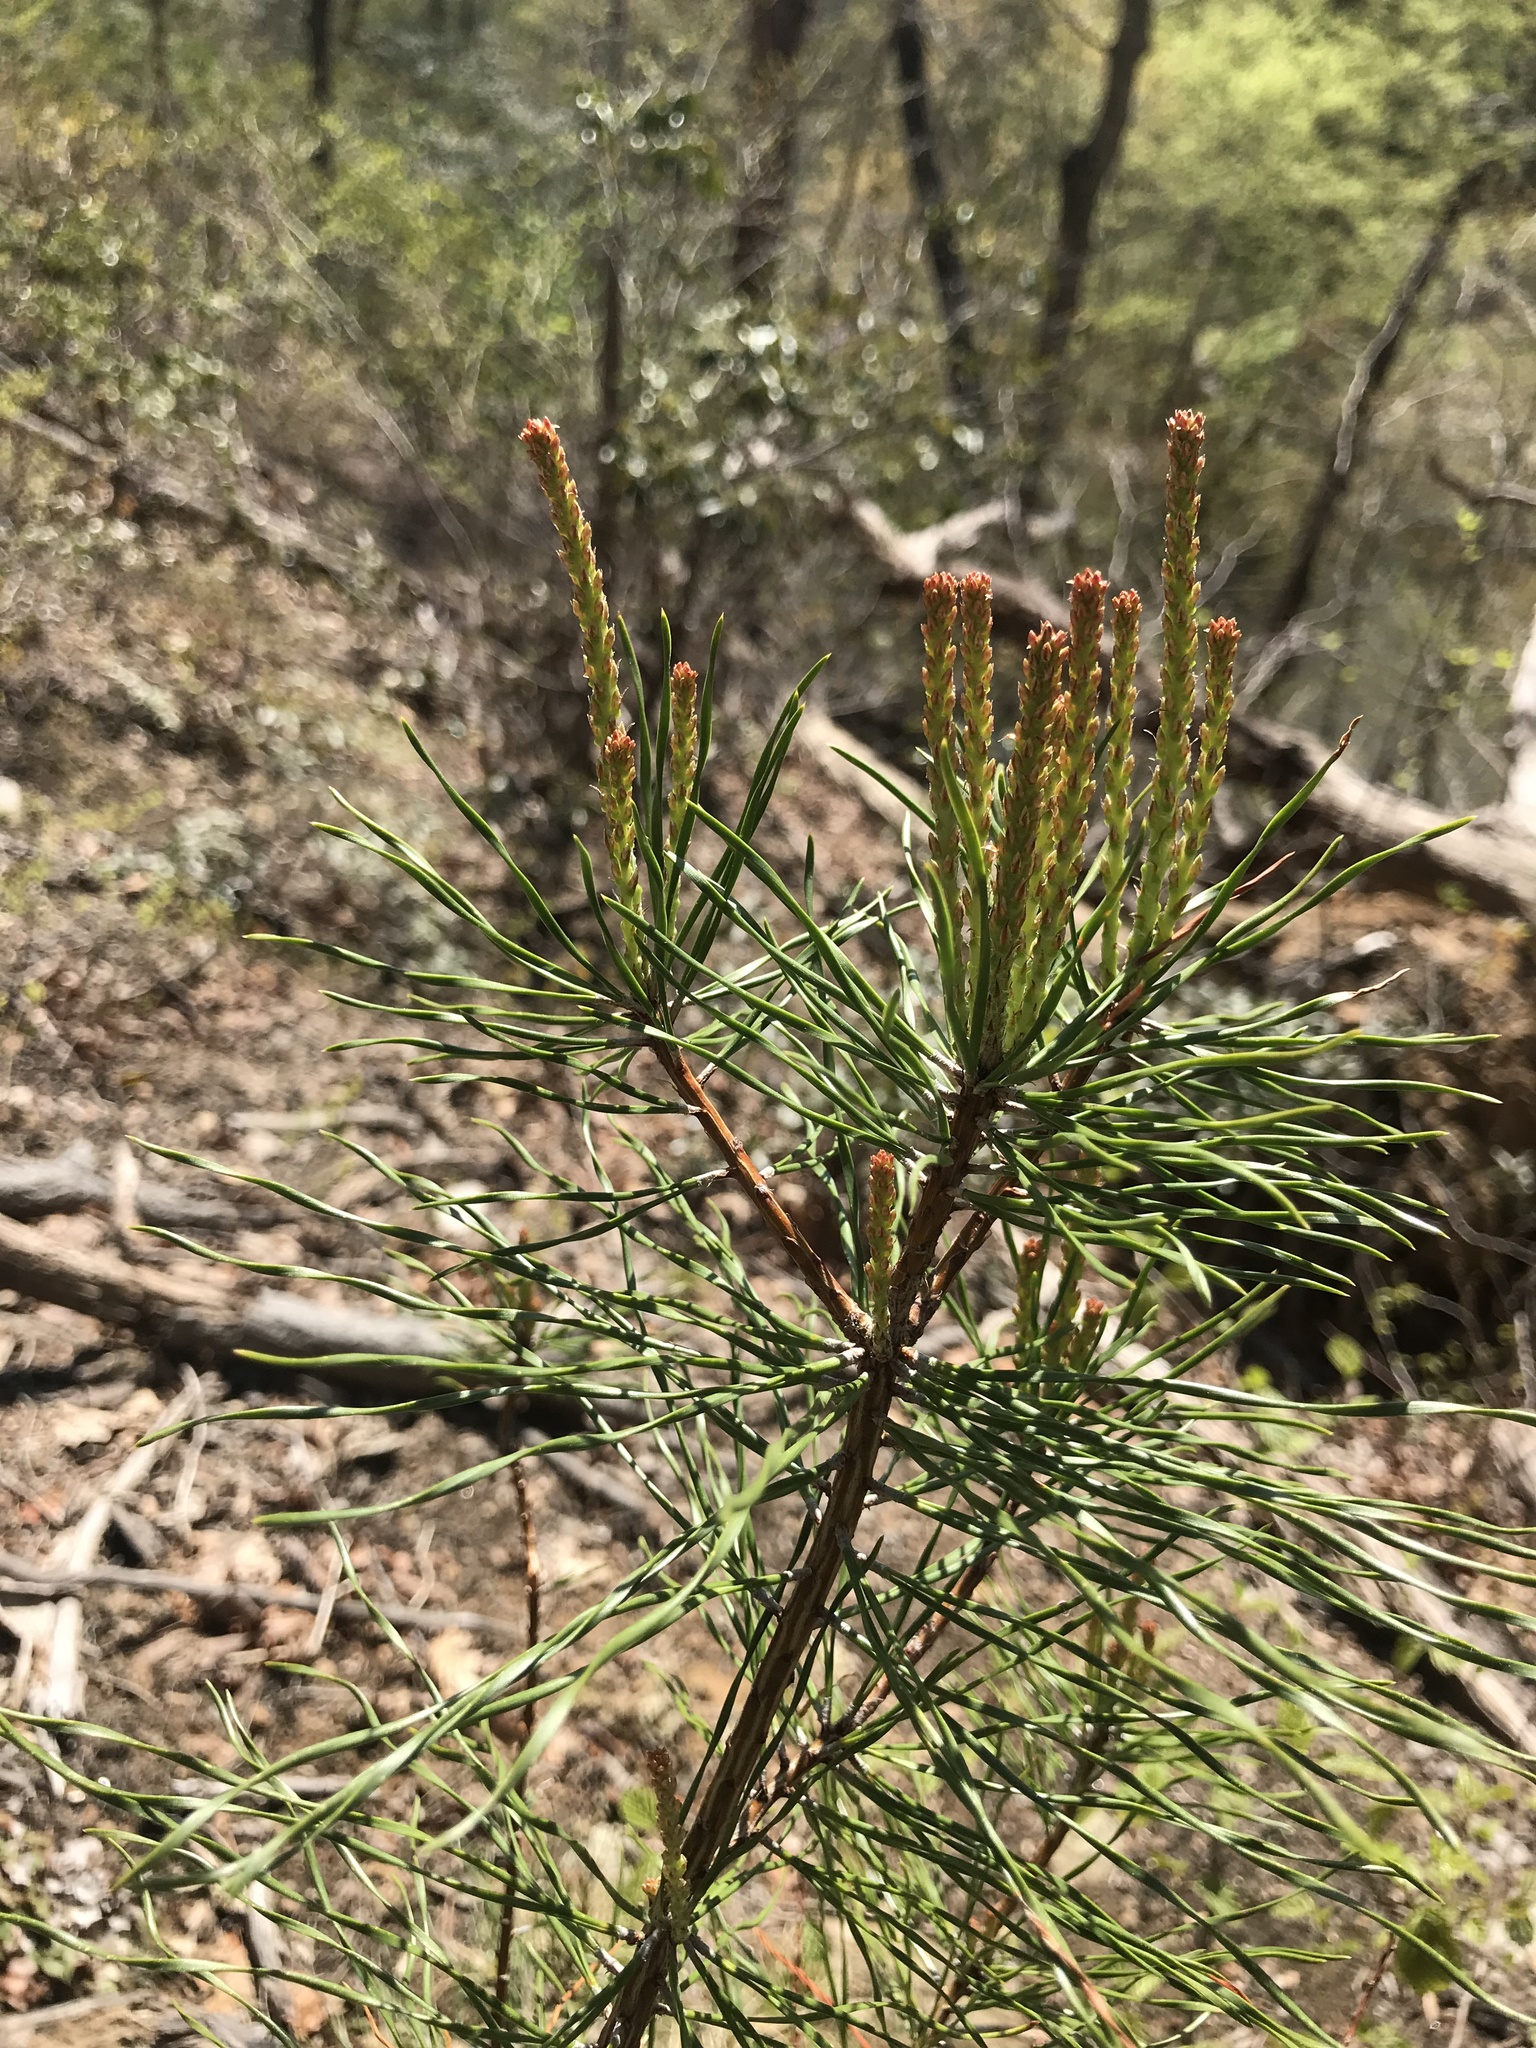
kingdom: Plantae
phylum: Tracheophyta
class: Pinopsida
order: Pinales
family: Pinaceae
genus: Pinus
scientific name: Pinus virginiana
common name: Scrub pine
